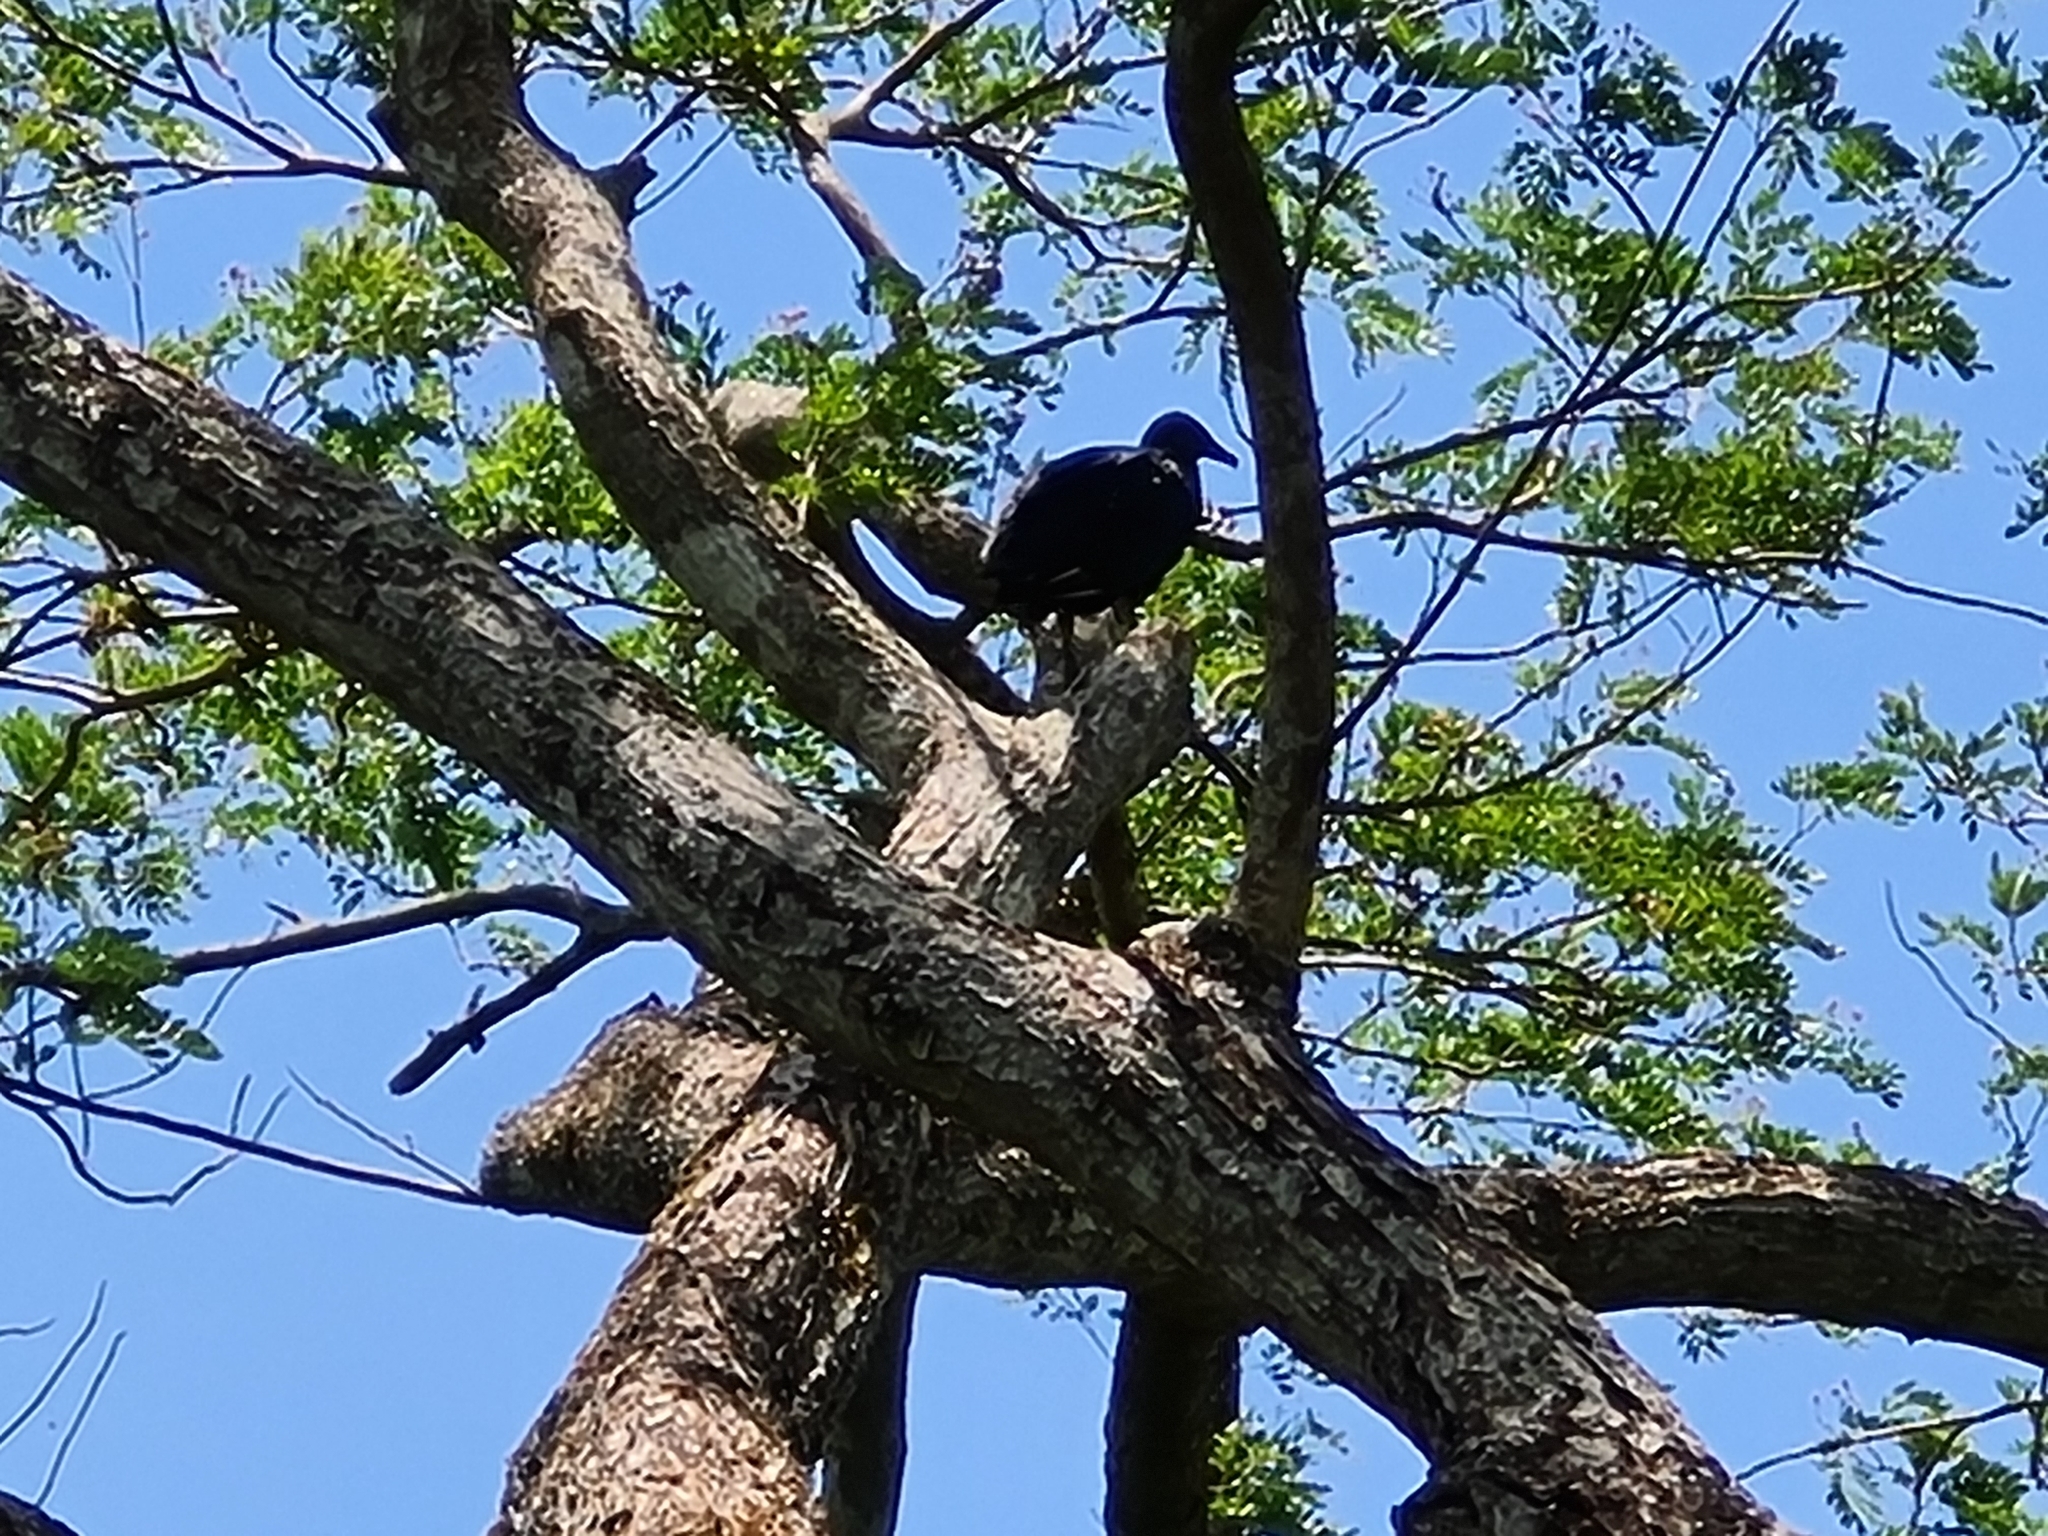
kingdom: Animalia
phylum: Chordata
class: Aves
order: Accipitriformes
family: Cathartidae
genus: Coragyps
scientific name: Coragyps atratus
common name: Black vulture
